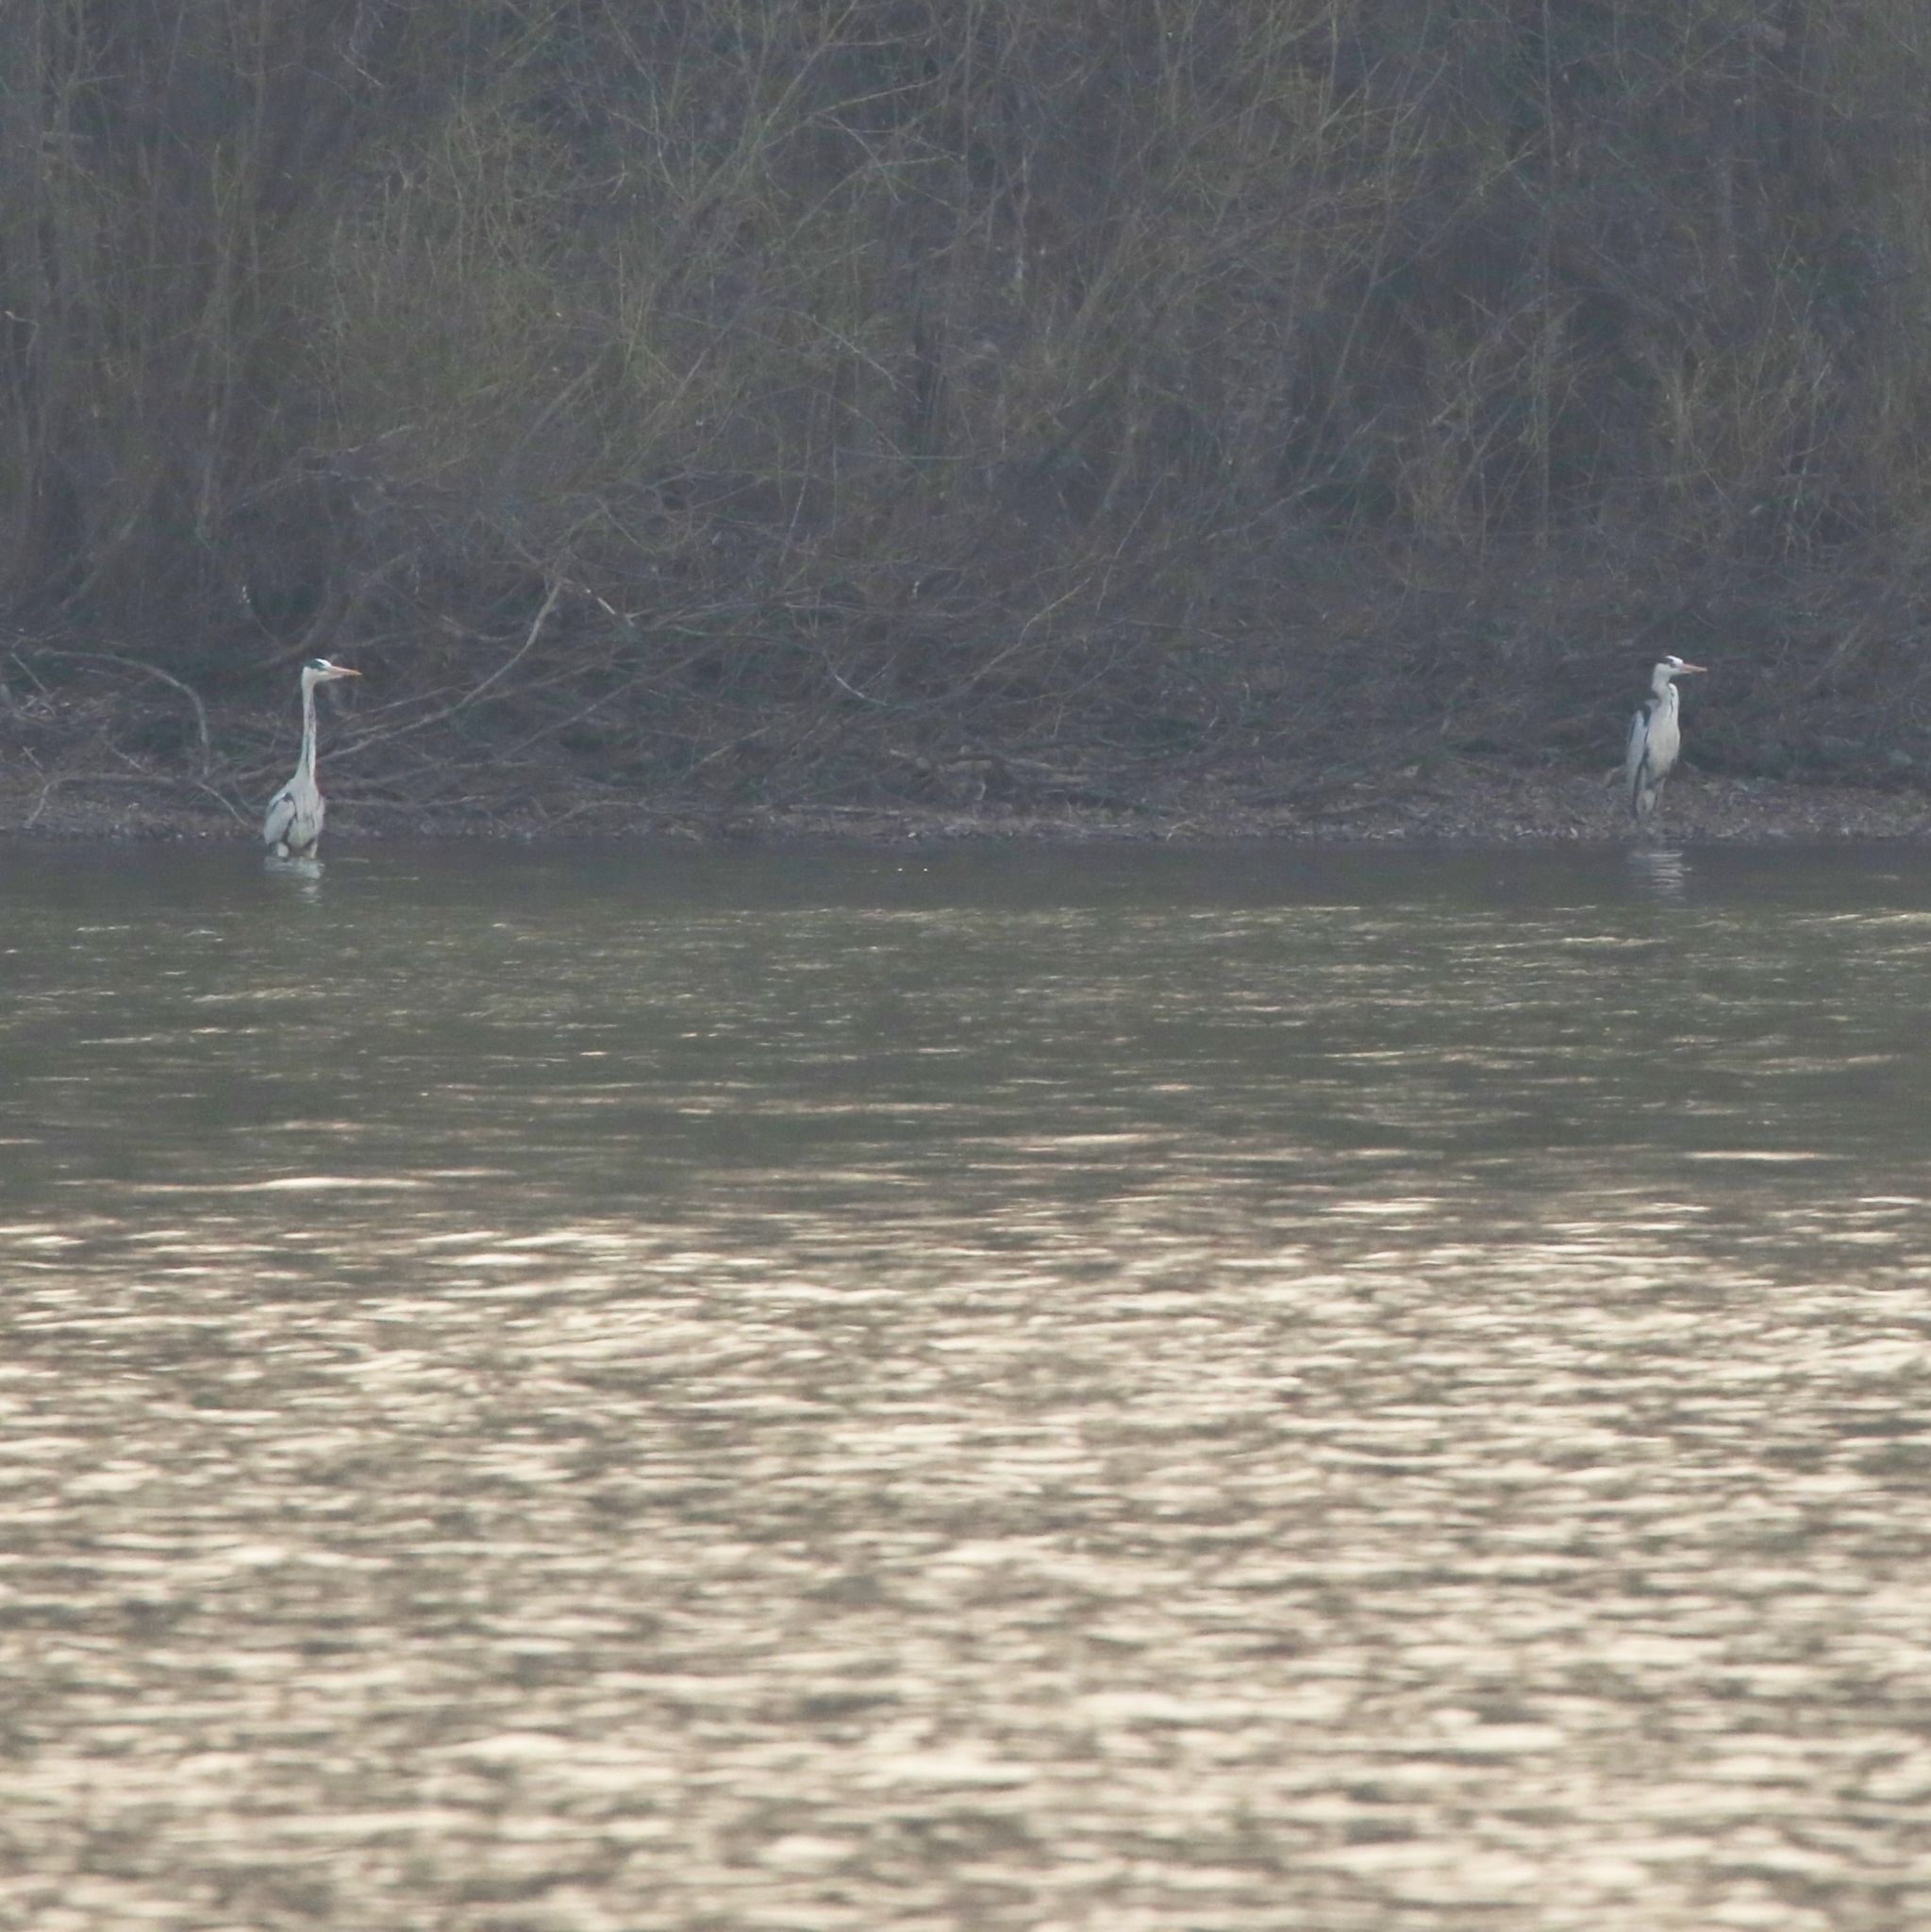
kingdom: Animalia
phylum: Chordata
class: Aves
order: Pelecaniformes
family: Ardeidae
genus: Ardea
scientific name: Ardea cinerea
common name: Grey heron
